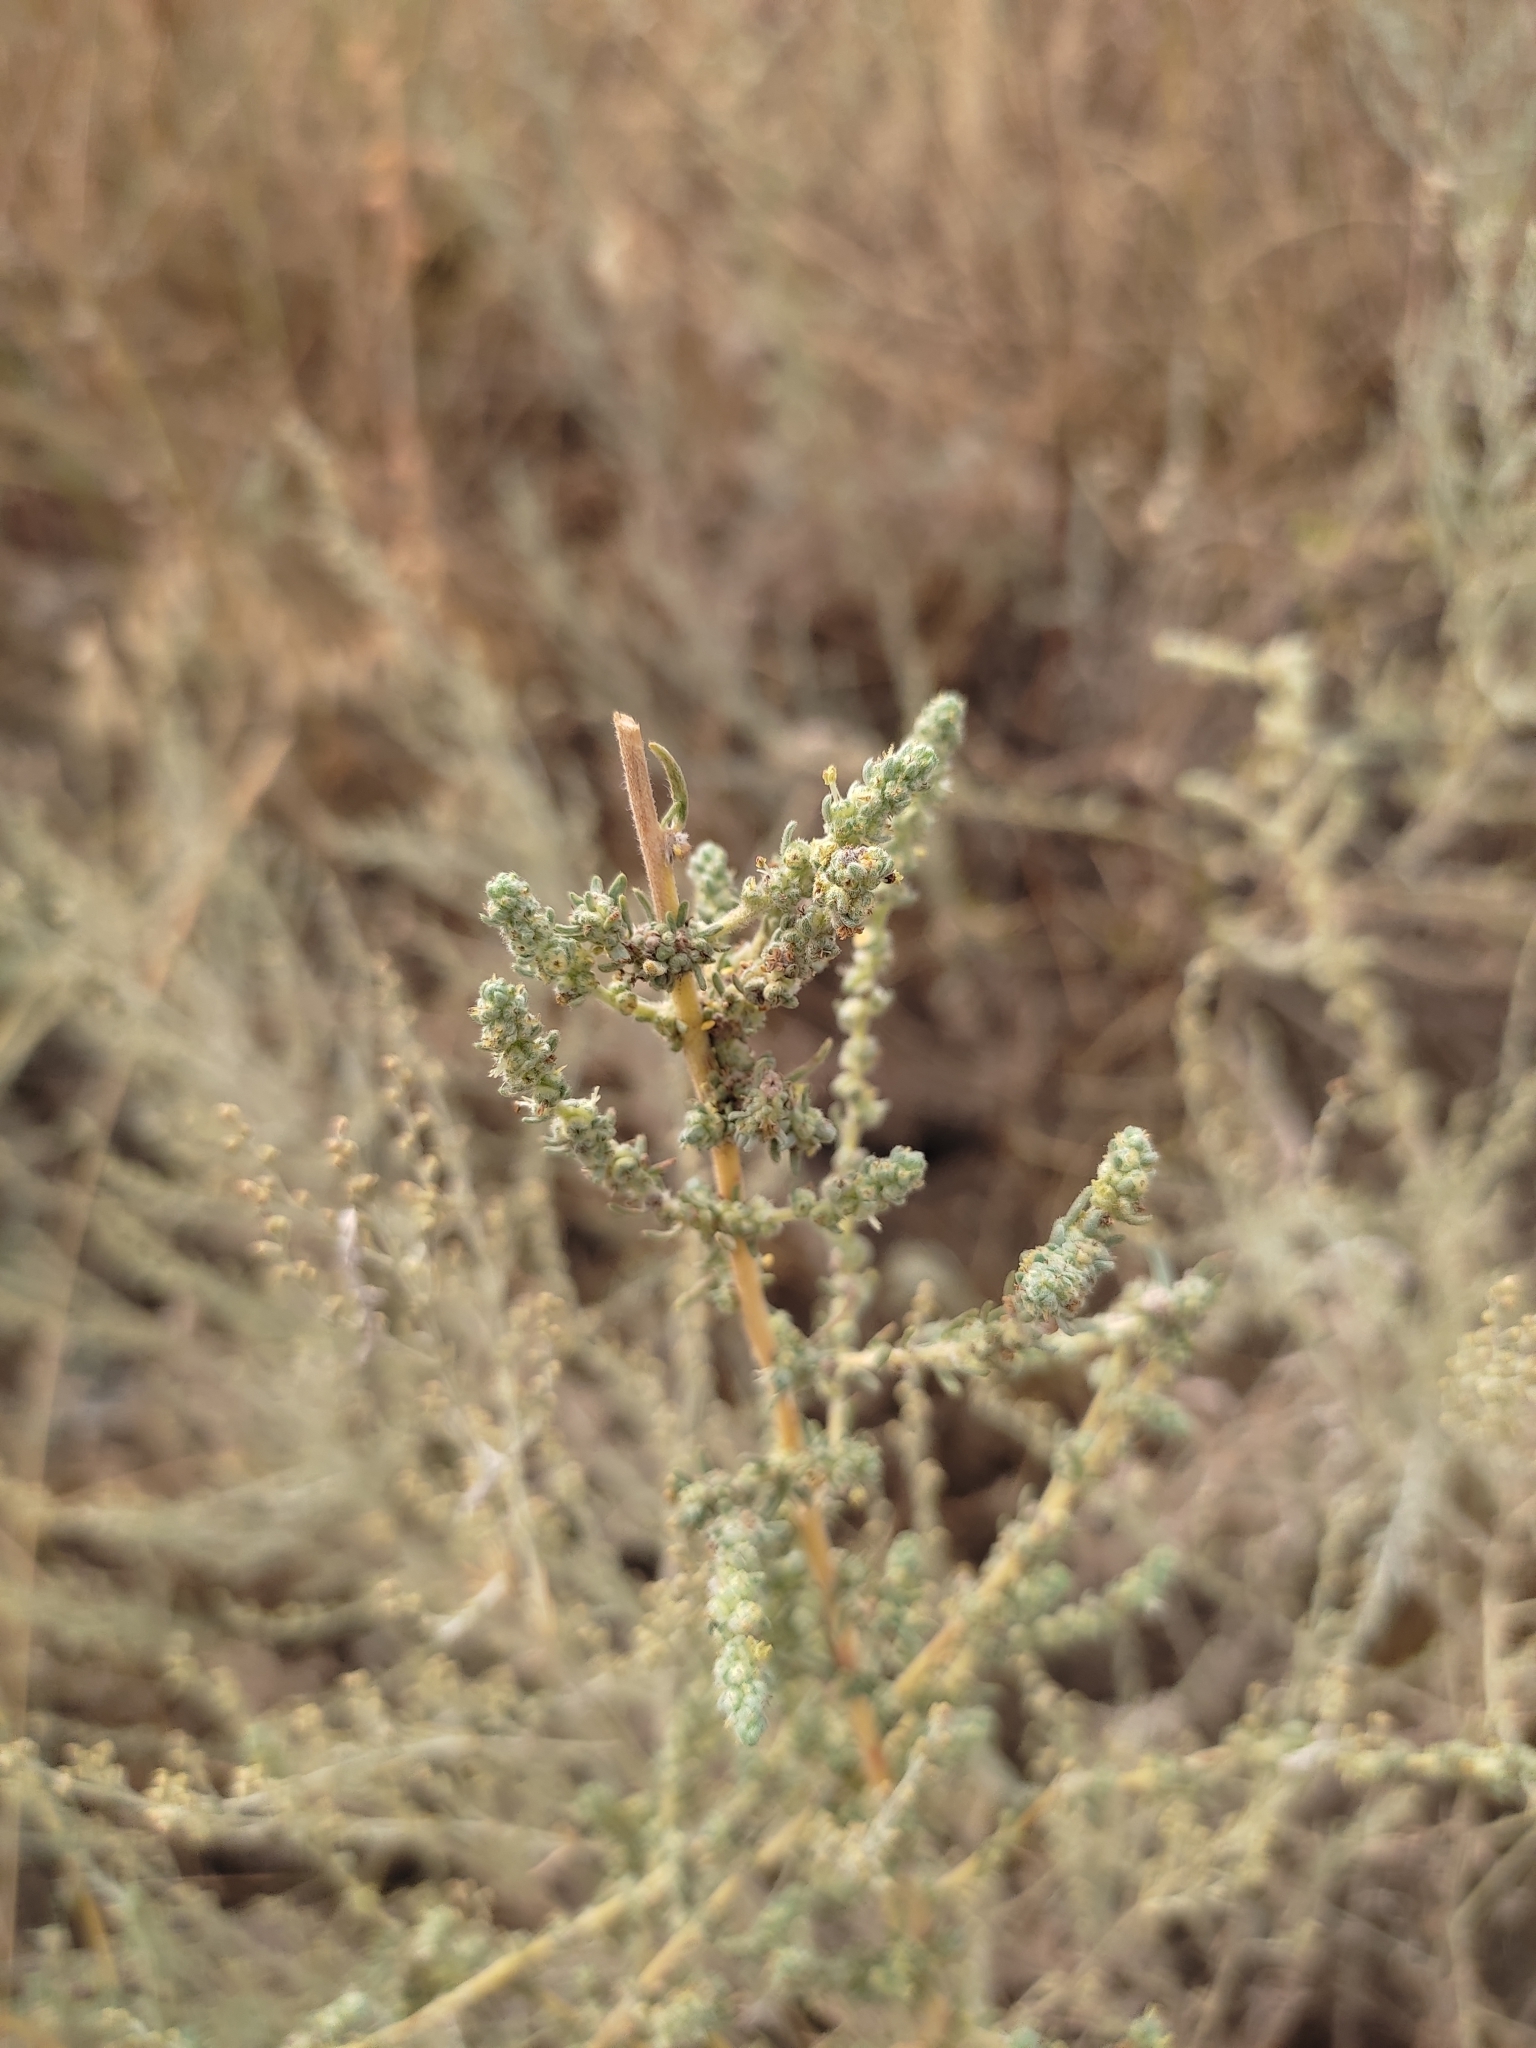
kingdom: Plantae
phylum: Tracheophyta
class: Magnoliopsida
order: Caryophyllales
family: Amaranthaceae
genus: Bassia
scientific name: Bassia prostrata
